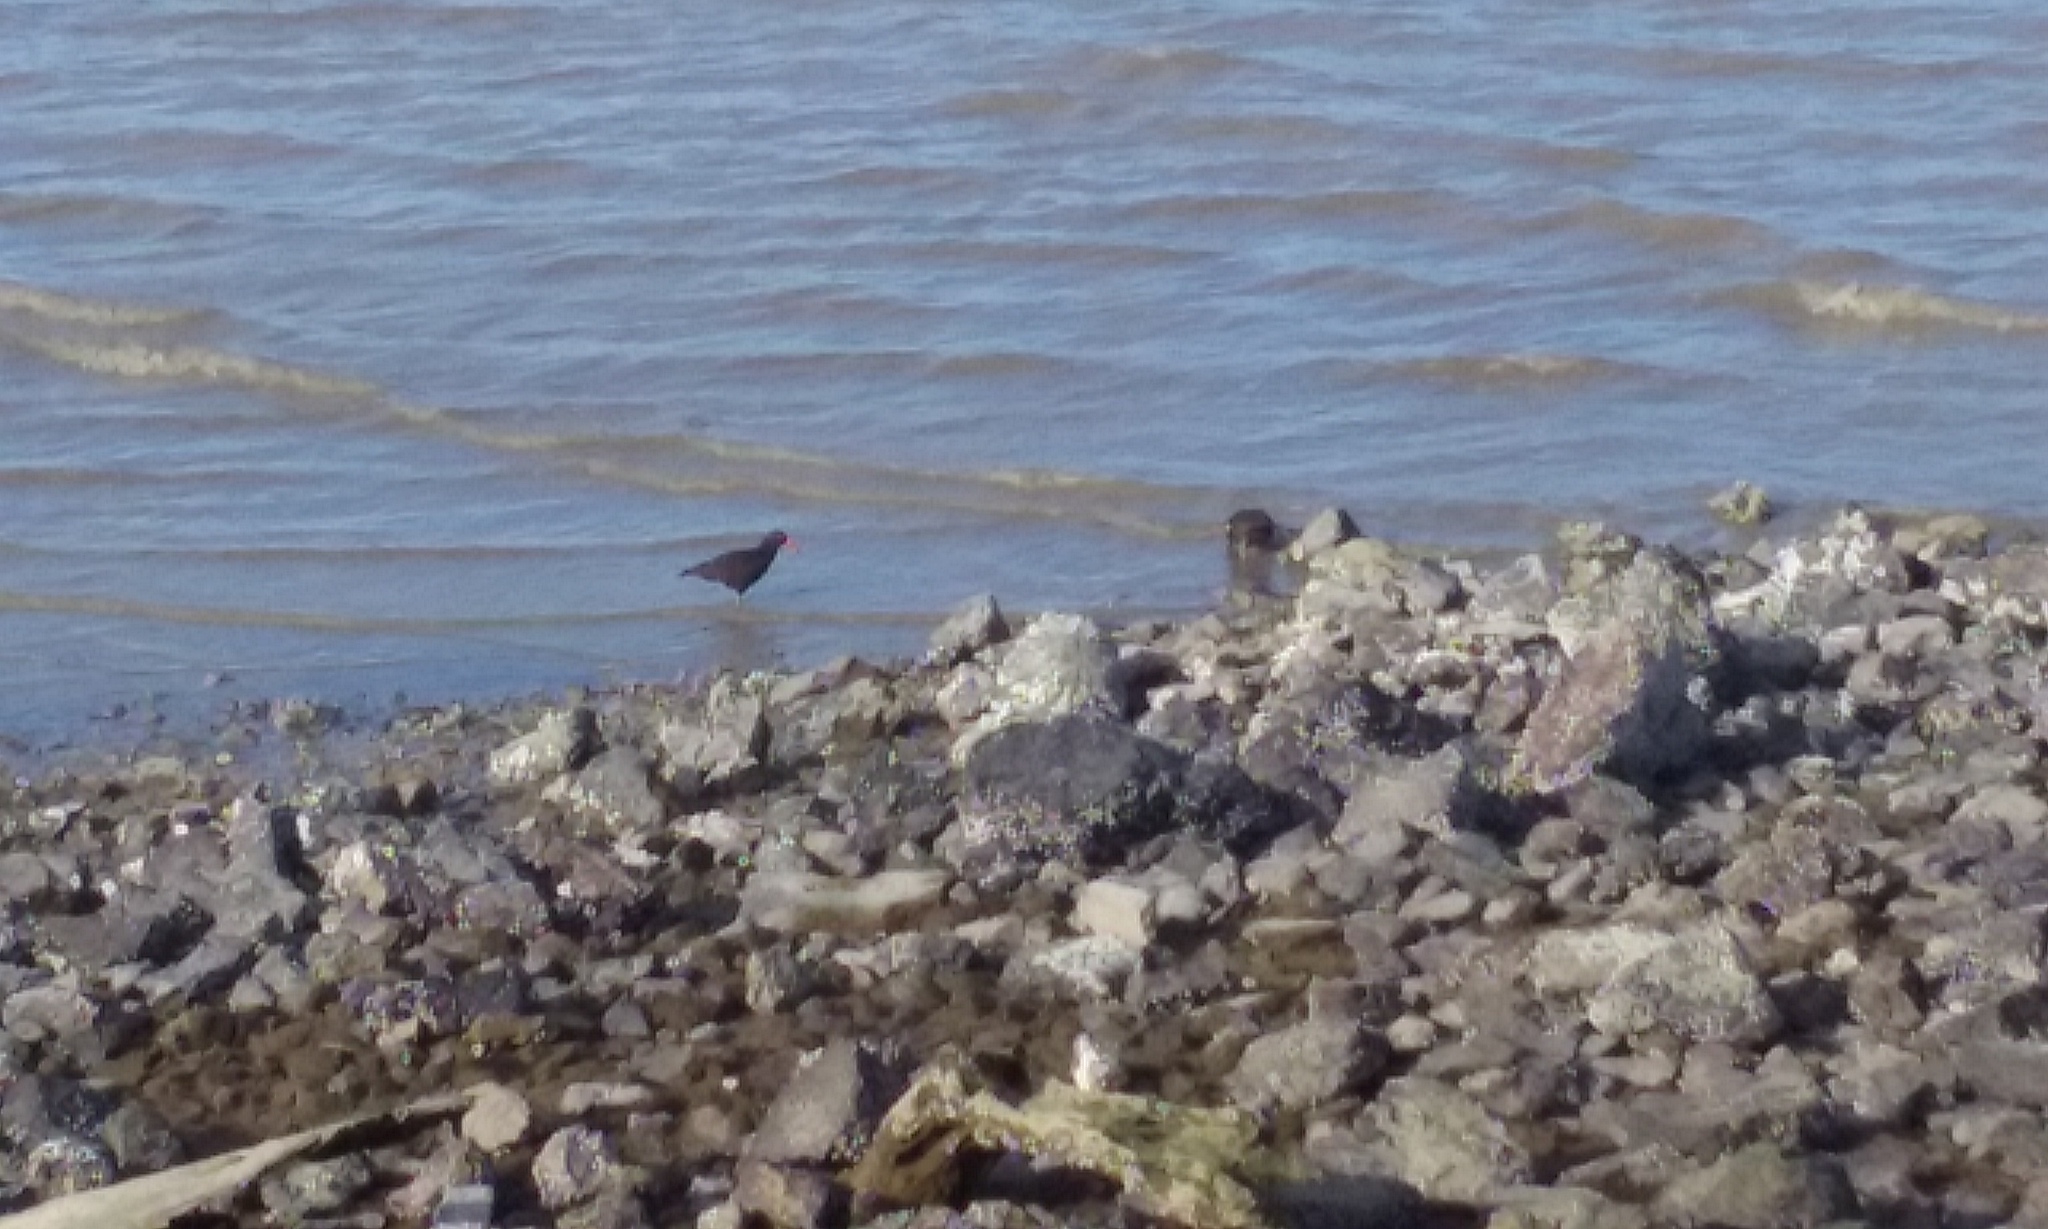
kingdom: Animalia
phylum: Chordata
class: Aves
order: Charadriiformes
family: Haematopodidae
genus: Haematopus
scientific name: Haematopus bachmani
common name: Black oystercatcher
